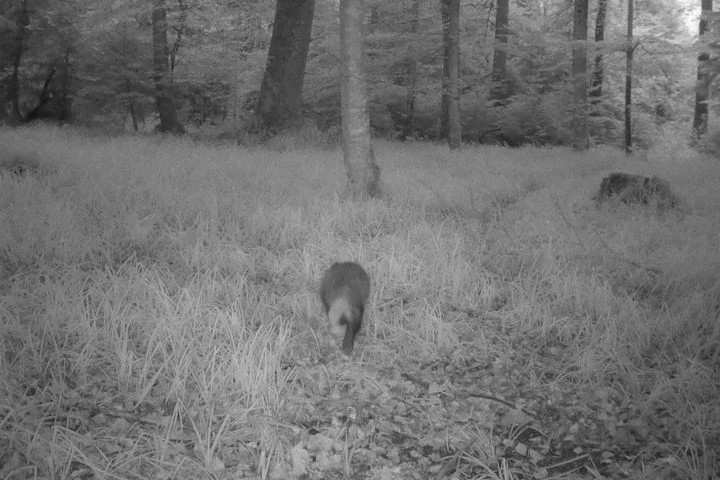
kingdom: Animalia
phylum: Chordata
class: Mammalia
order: Carnivora
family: Mustelidae
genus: Meles
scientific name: Meles meles
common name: Eurasian badger
